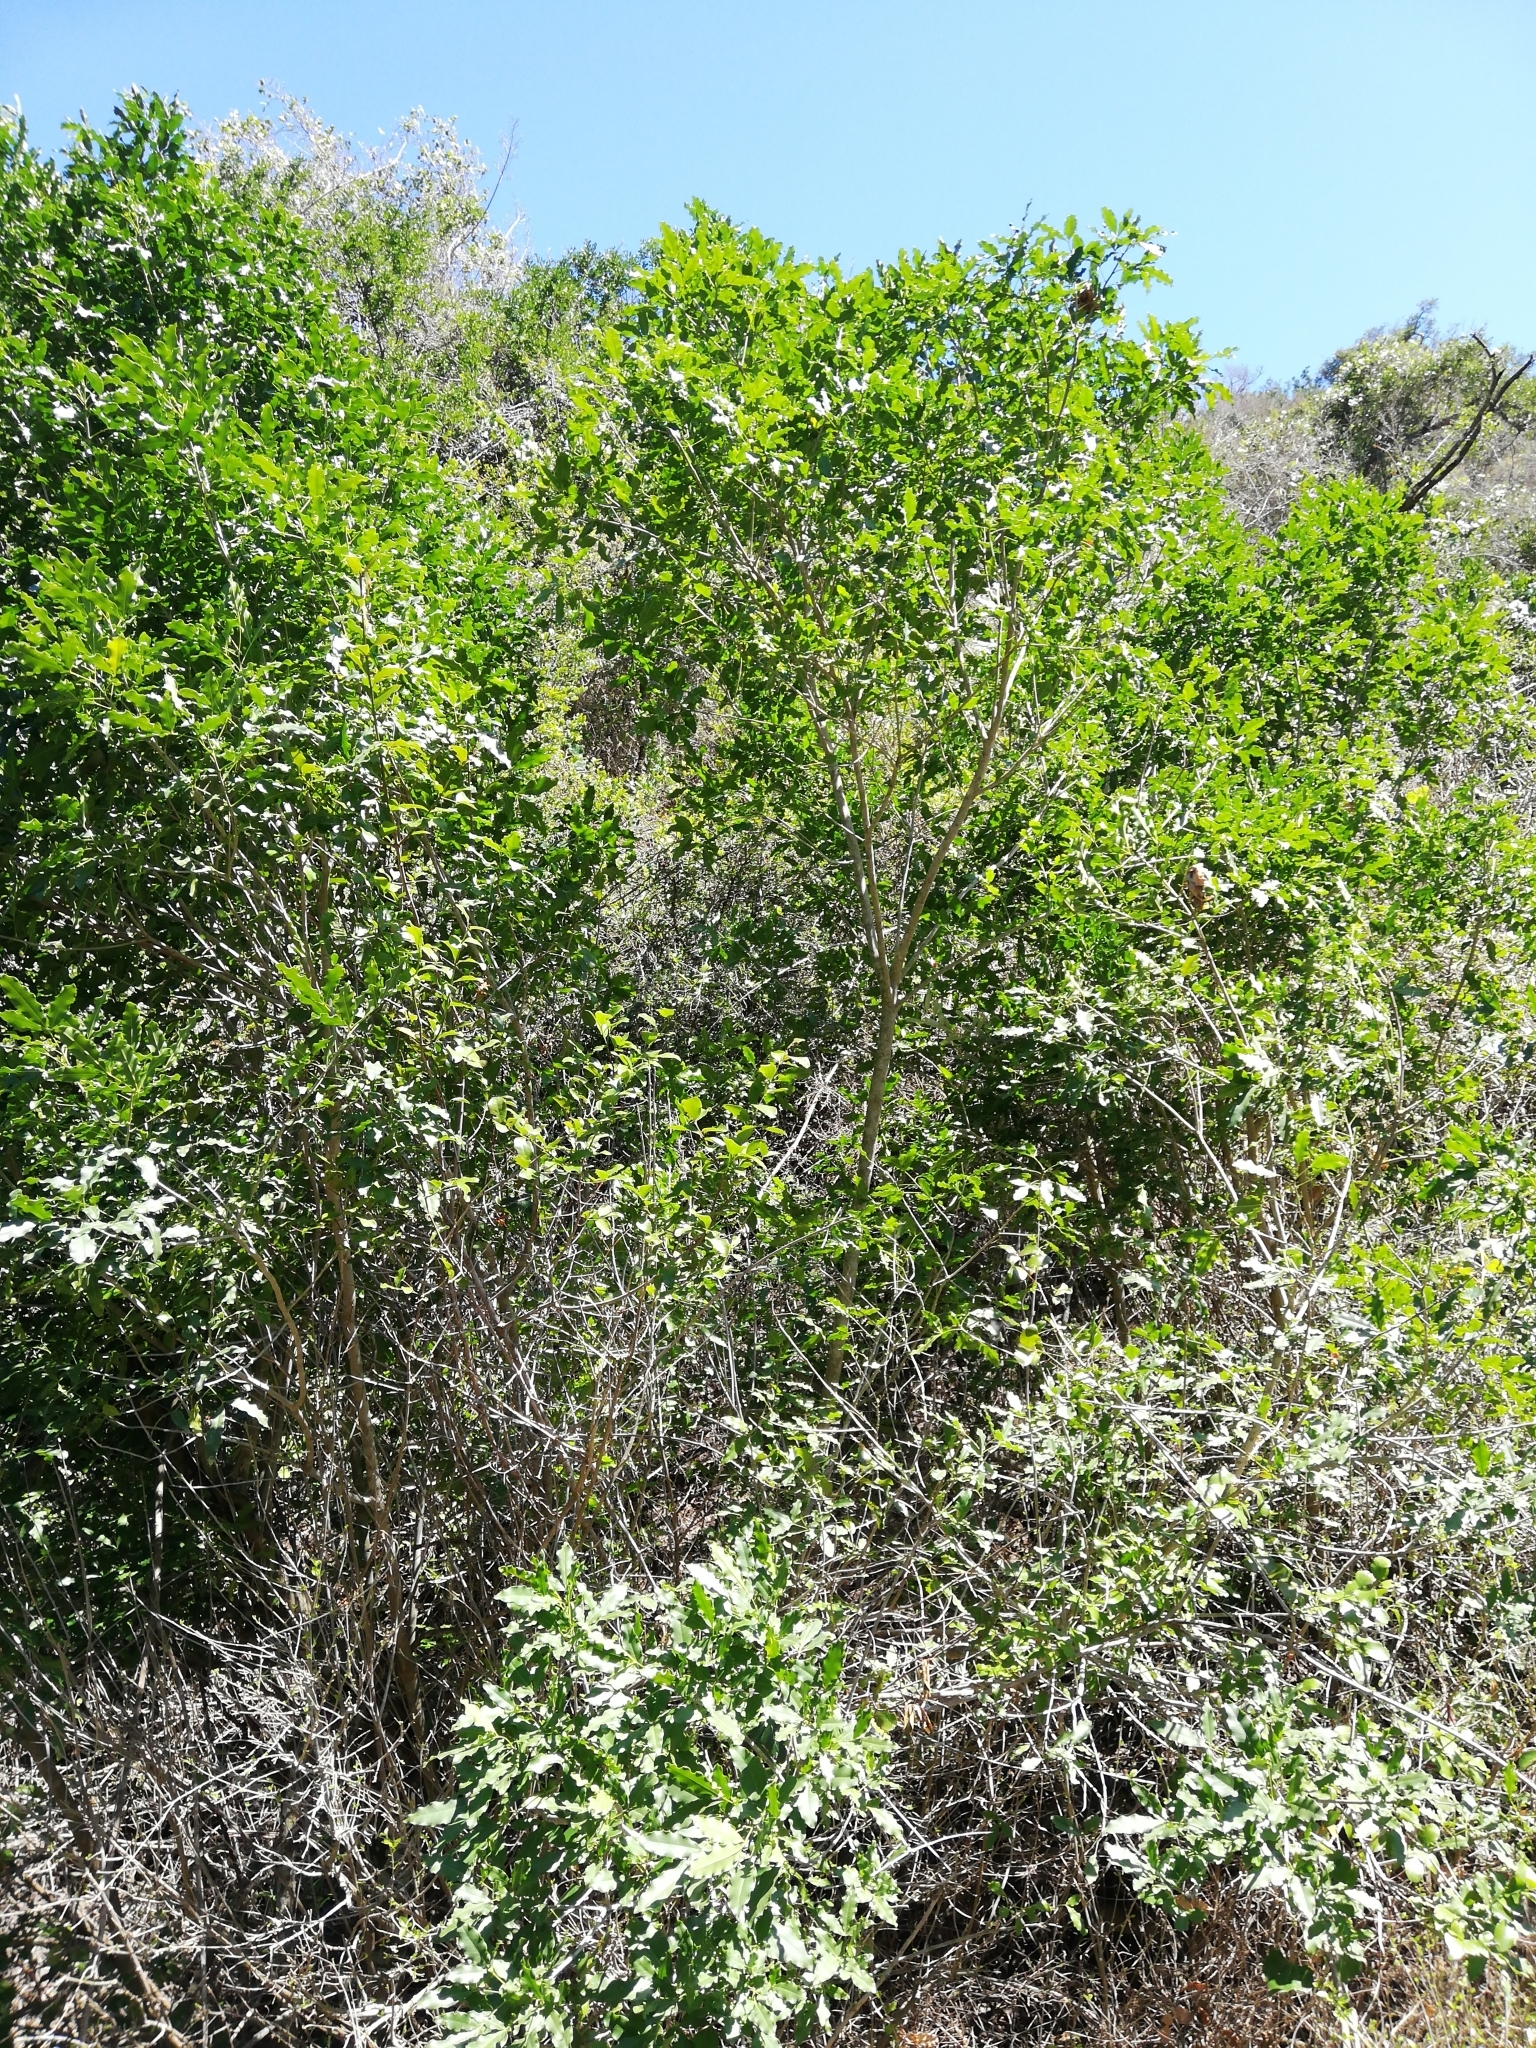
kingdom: Plantae
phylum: Tracheophyta
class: Magnoliopsida
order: Sapindales
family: Rutaceae
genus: Vepris
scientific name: Vepris lanceolata
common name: White ironwood
